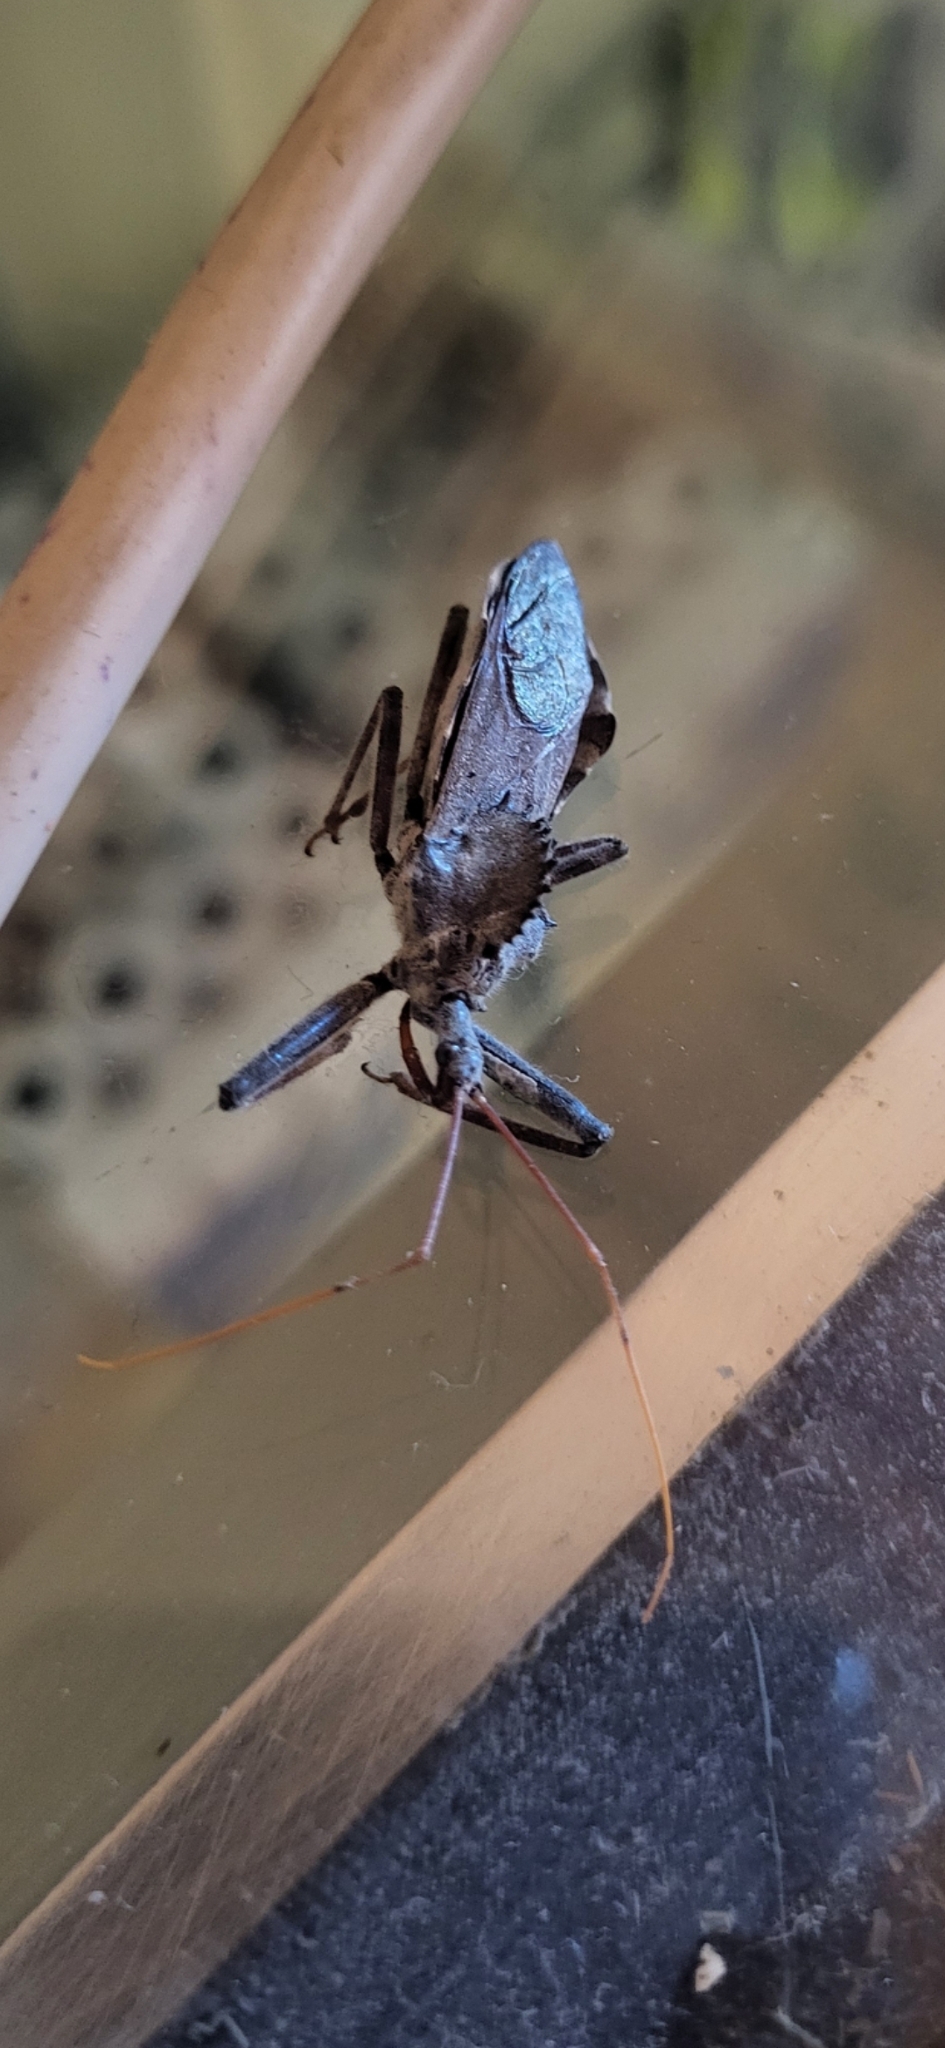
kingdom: Animalia
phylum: Arthropoda
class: Insecta
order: Hemiptera
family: Reduviidae
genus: Arilus
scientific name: Arilus cristatus
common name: North american wheel bug
